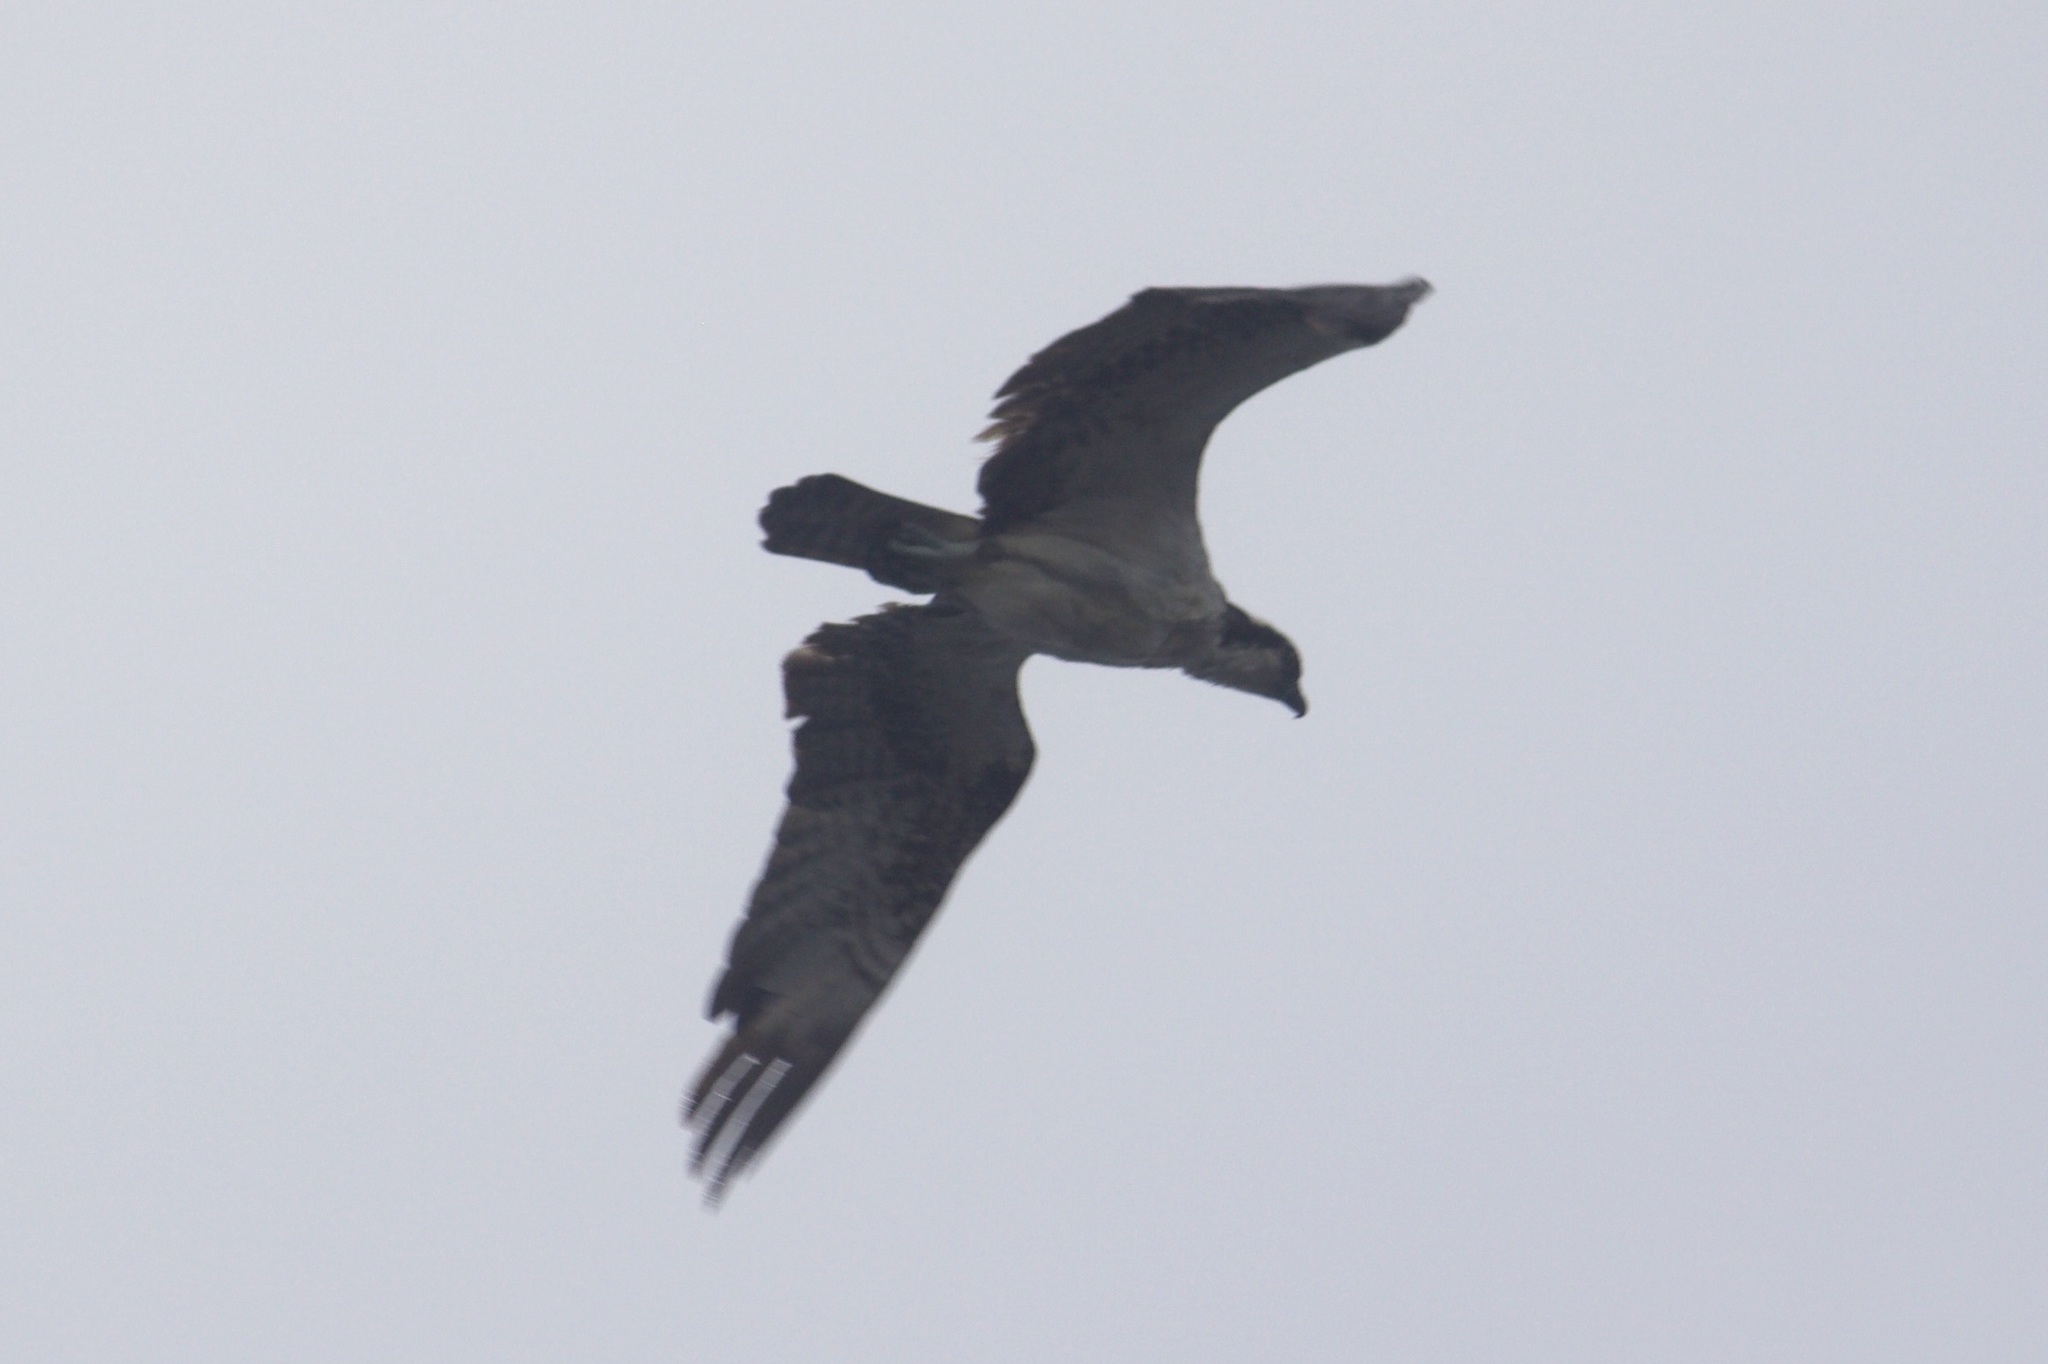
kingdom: Animalia
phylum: Chordata
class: Aves
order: Accipitriformes
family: Pandionidae
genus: Pandion
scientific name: Pandion haliaetus
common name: Osprey
